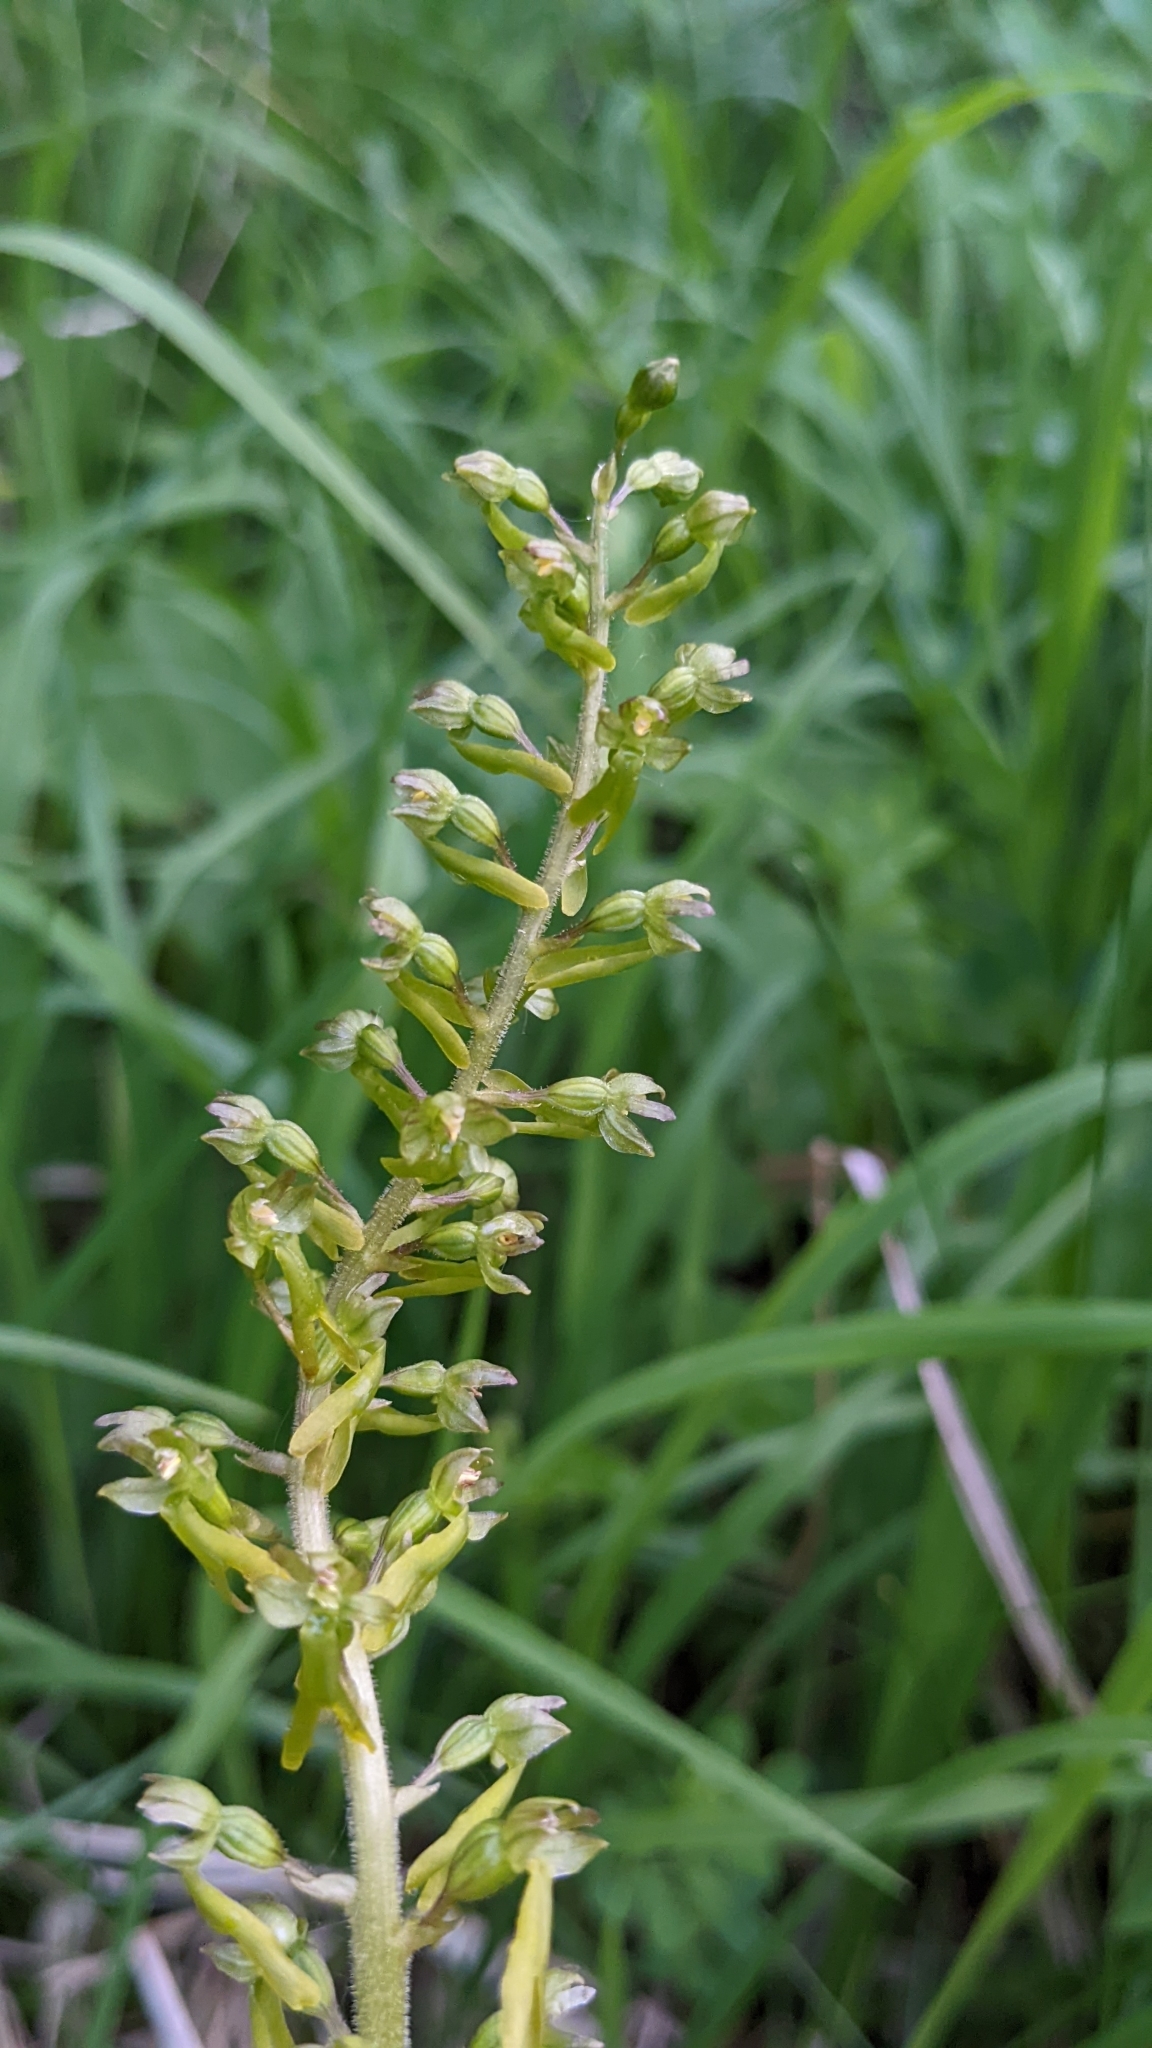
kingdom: Plantae
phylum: Tracheophyta
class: Liliopsida
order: Asparagales
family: Orchidaceae
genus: Neottia
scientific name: Neottia ovata
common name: Common twayblade
